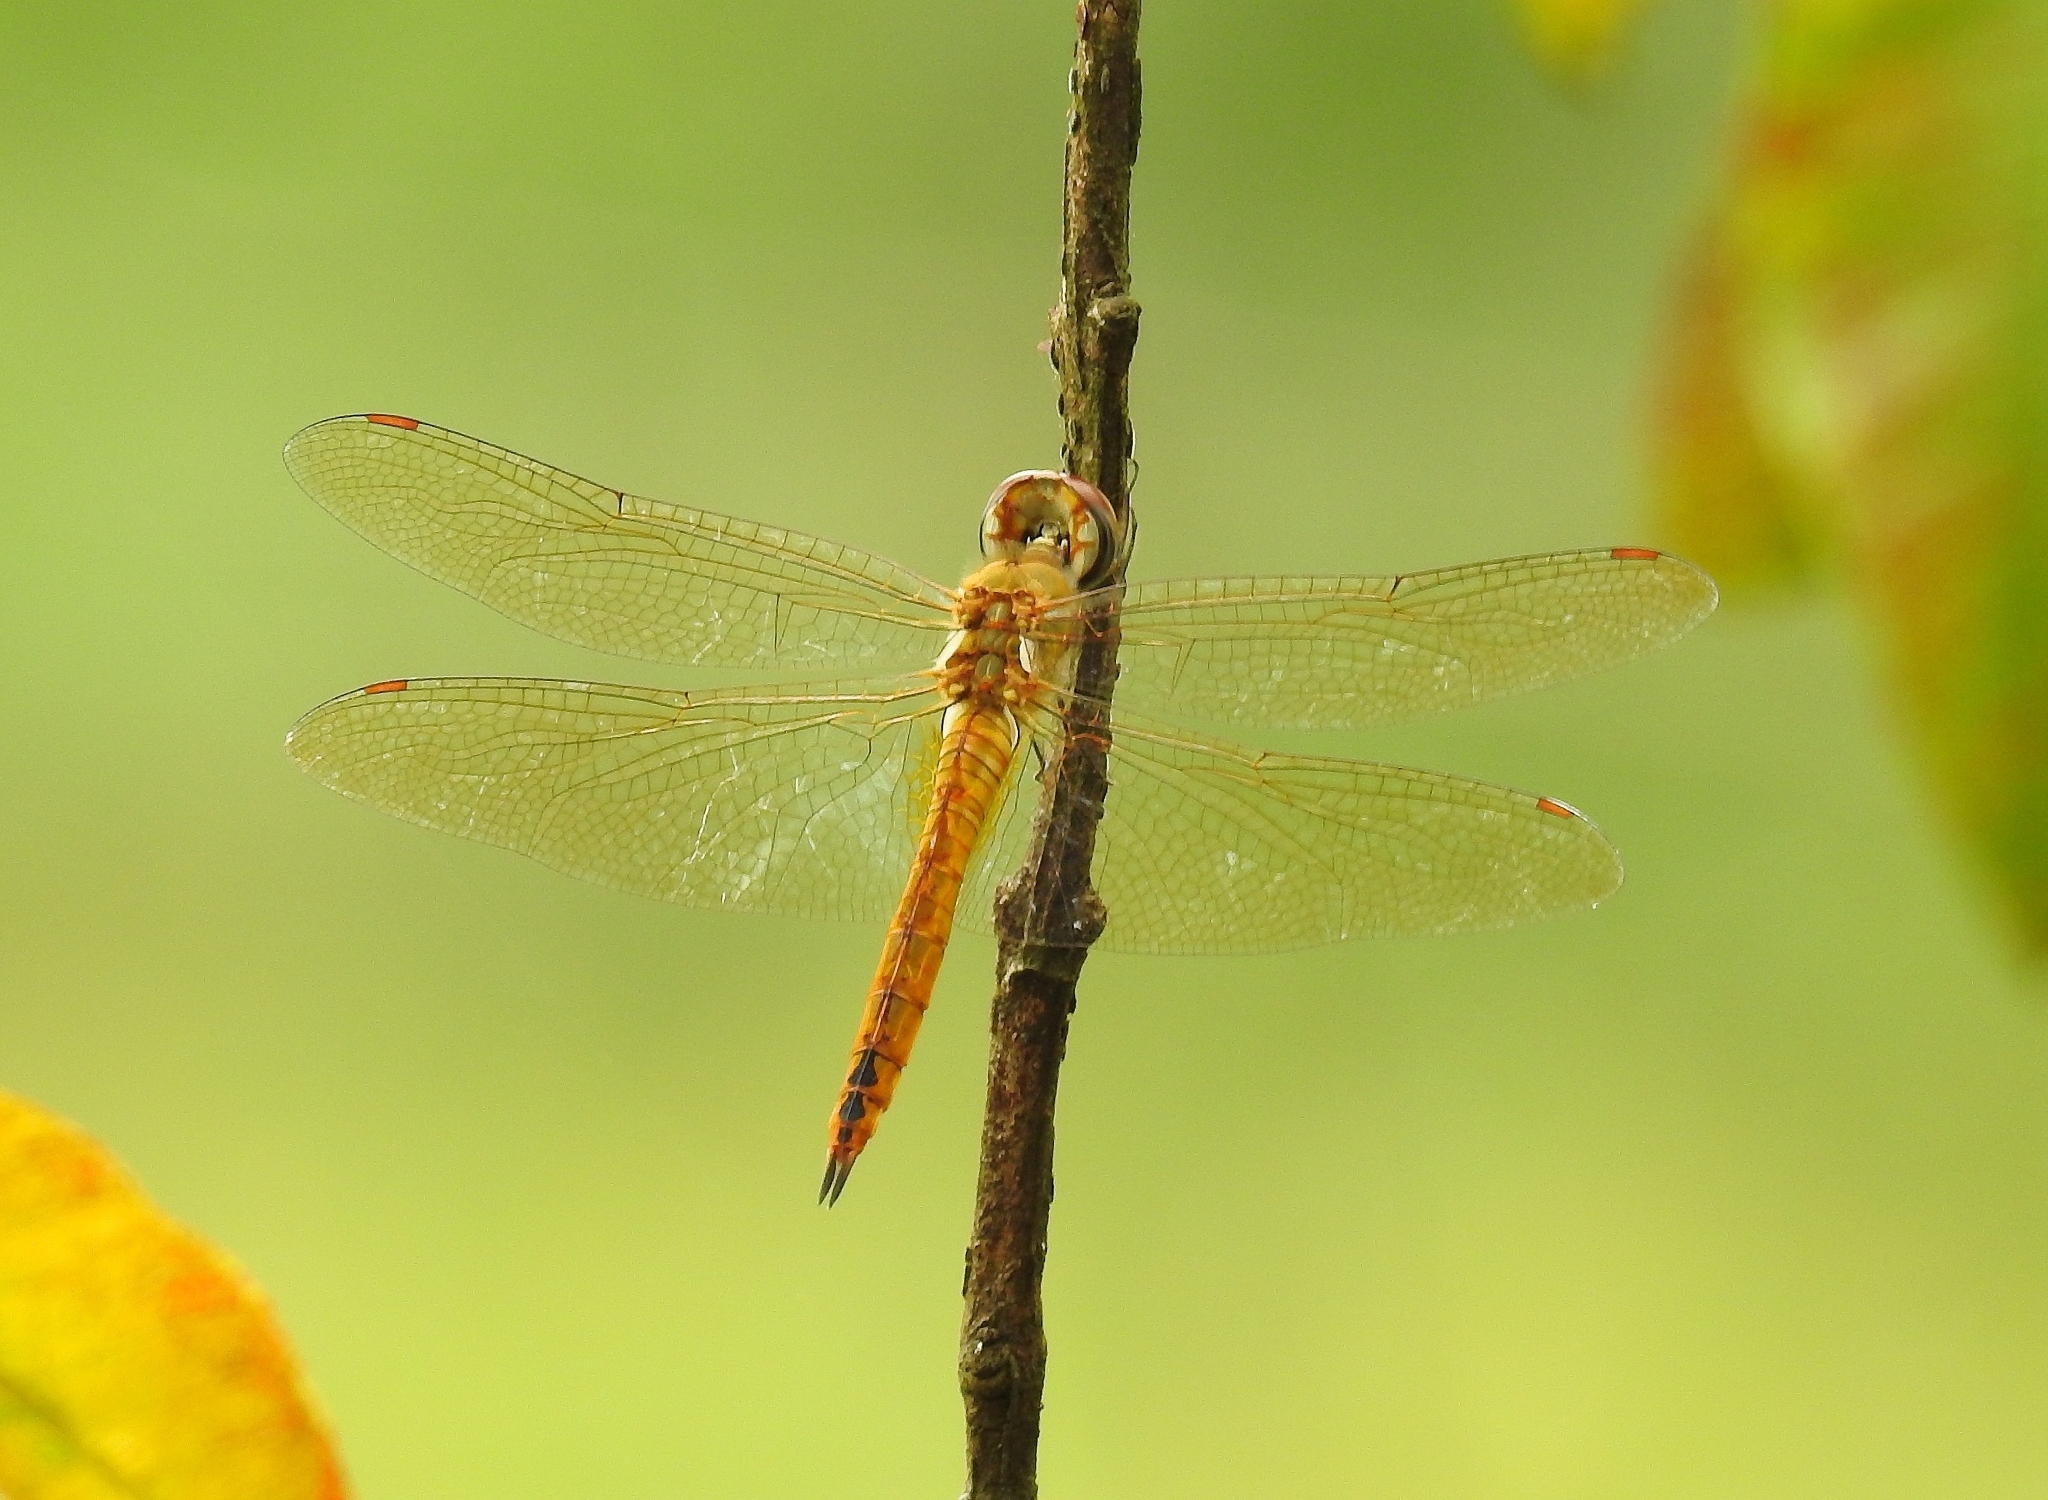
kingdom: Animalia
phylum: Arthropoda
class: Insecta
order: Odonata
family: Libellulidae
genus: Pantala
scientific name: Pantala flavescens
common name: Wandering glider
